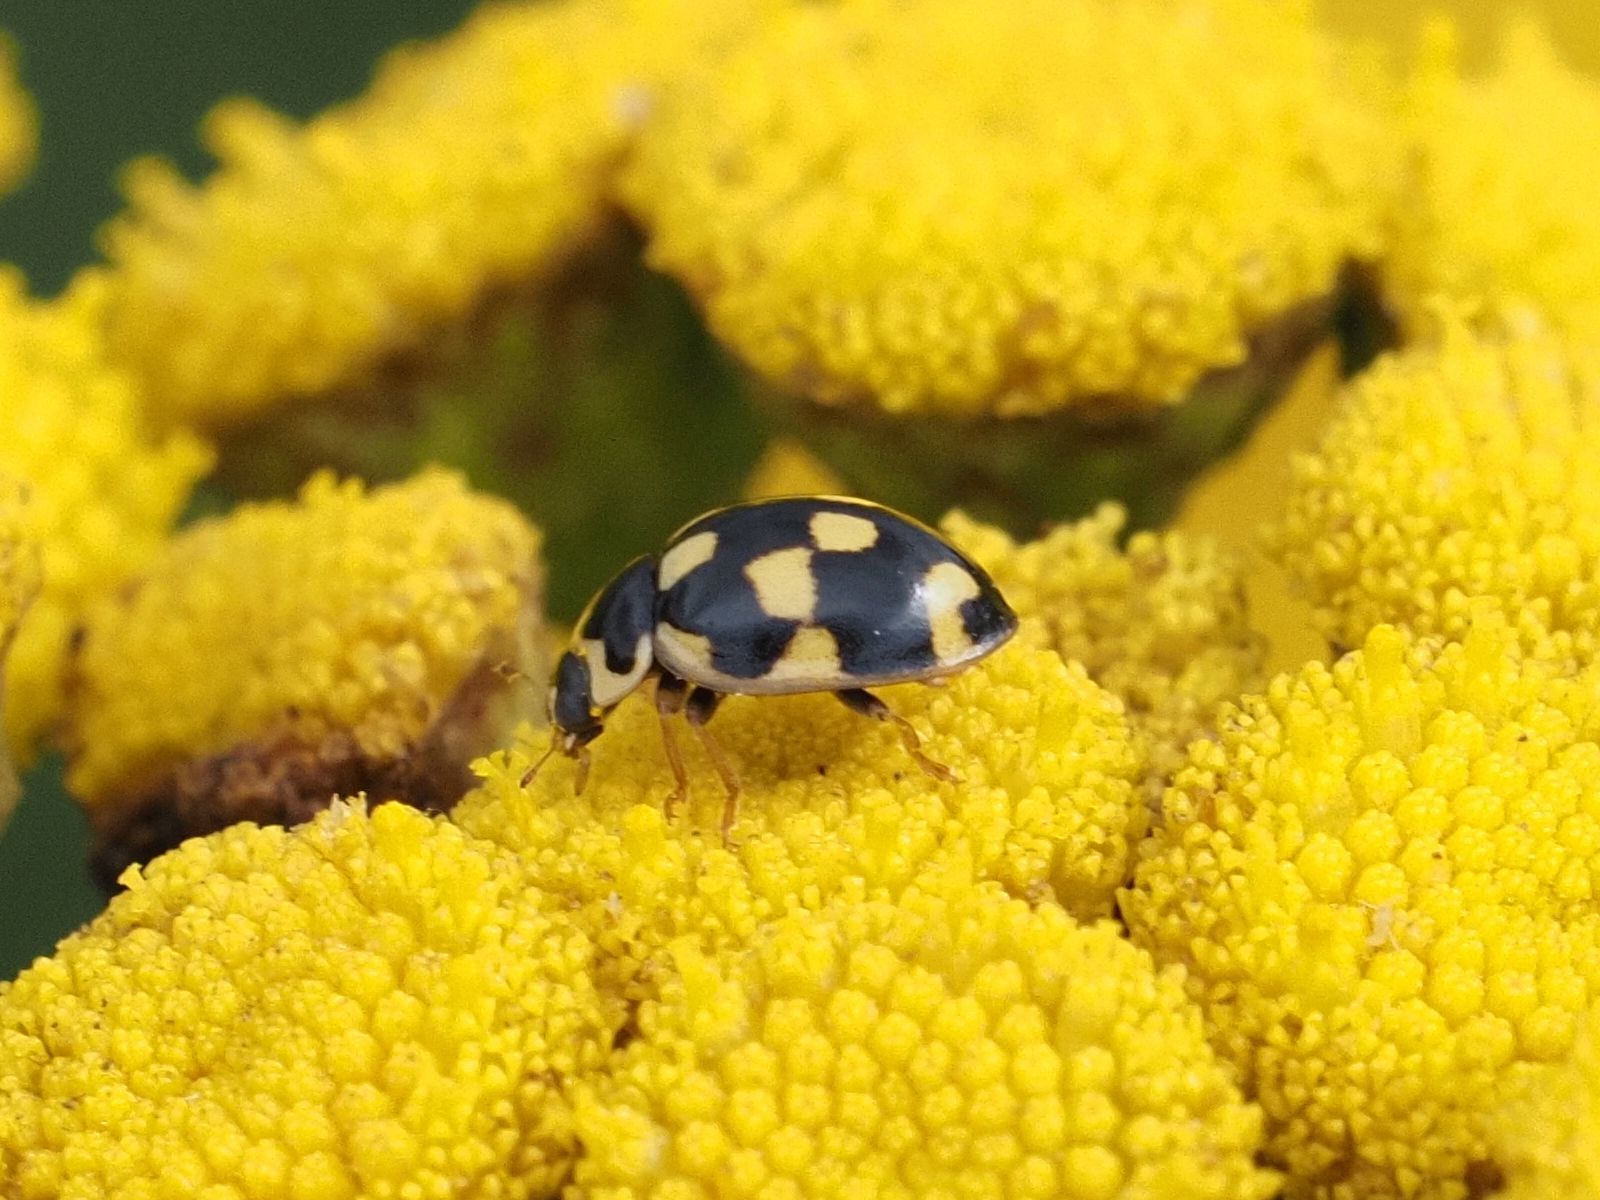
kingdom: Animalia
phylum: Arthropoda
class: Insecta
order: Coleoptera
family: Coccinellidae
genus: Propylaea
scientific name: Propylaea quatuordecimpunctata
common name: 14-spotted ladybird beetle
